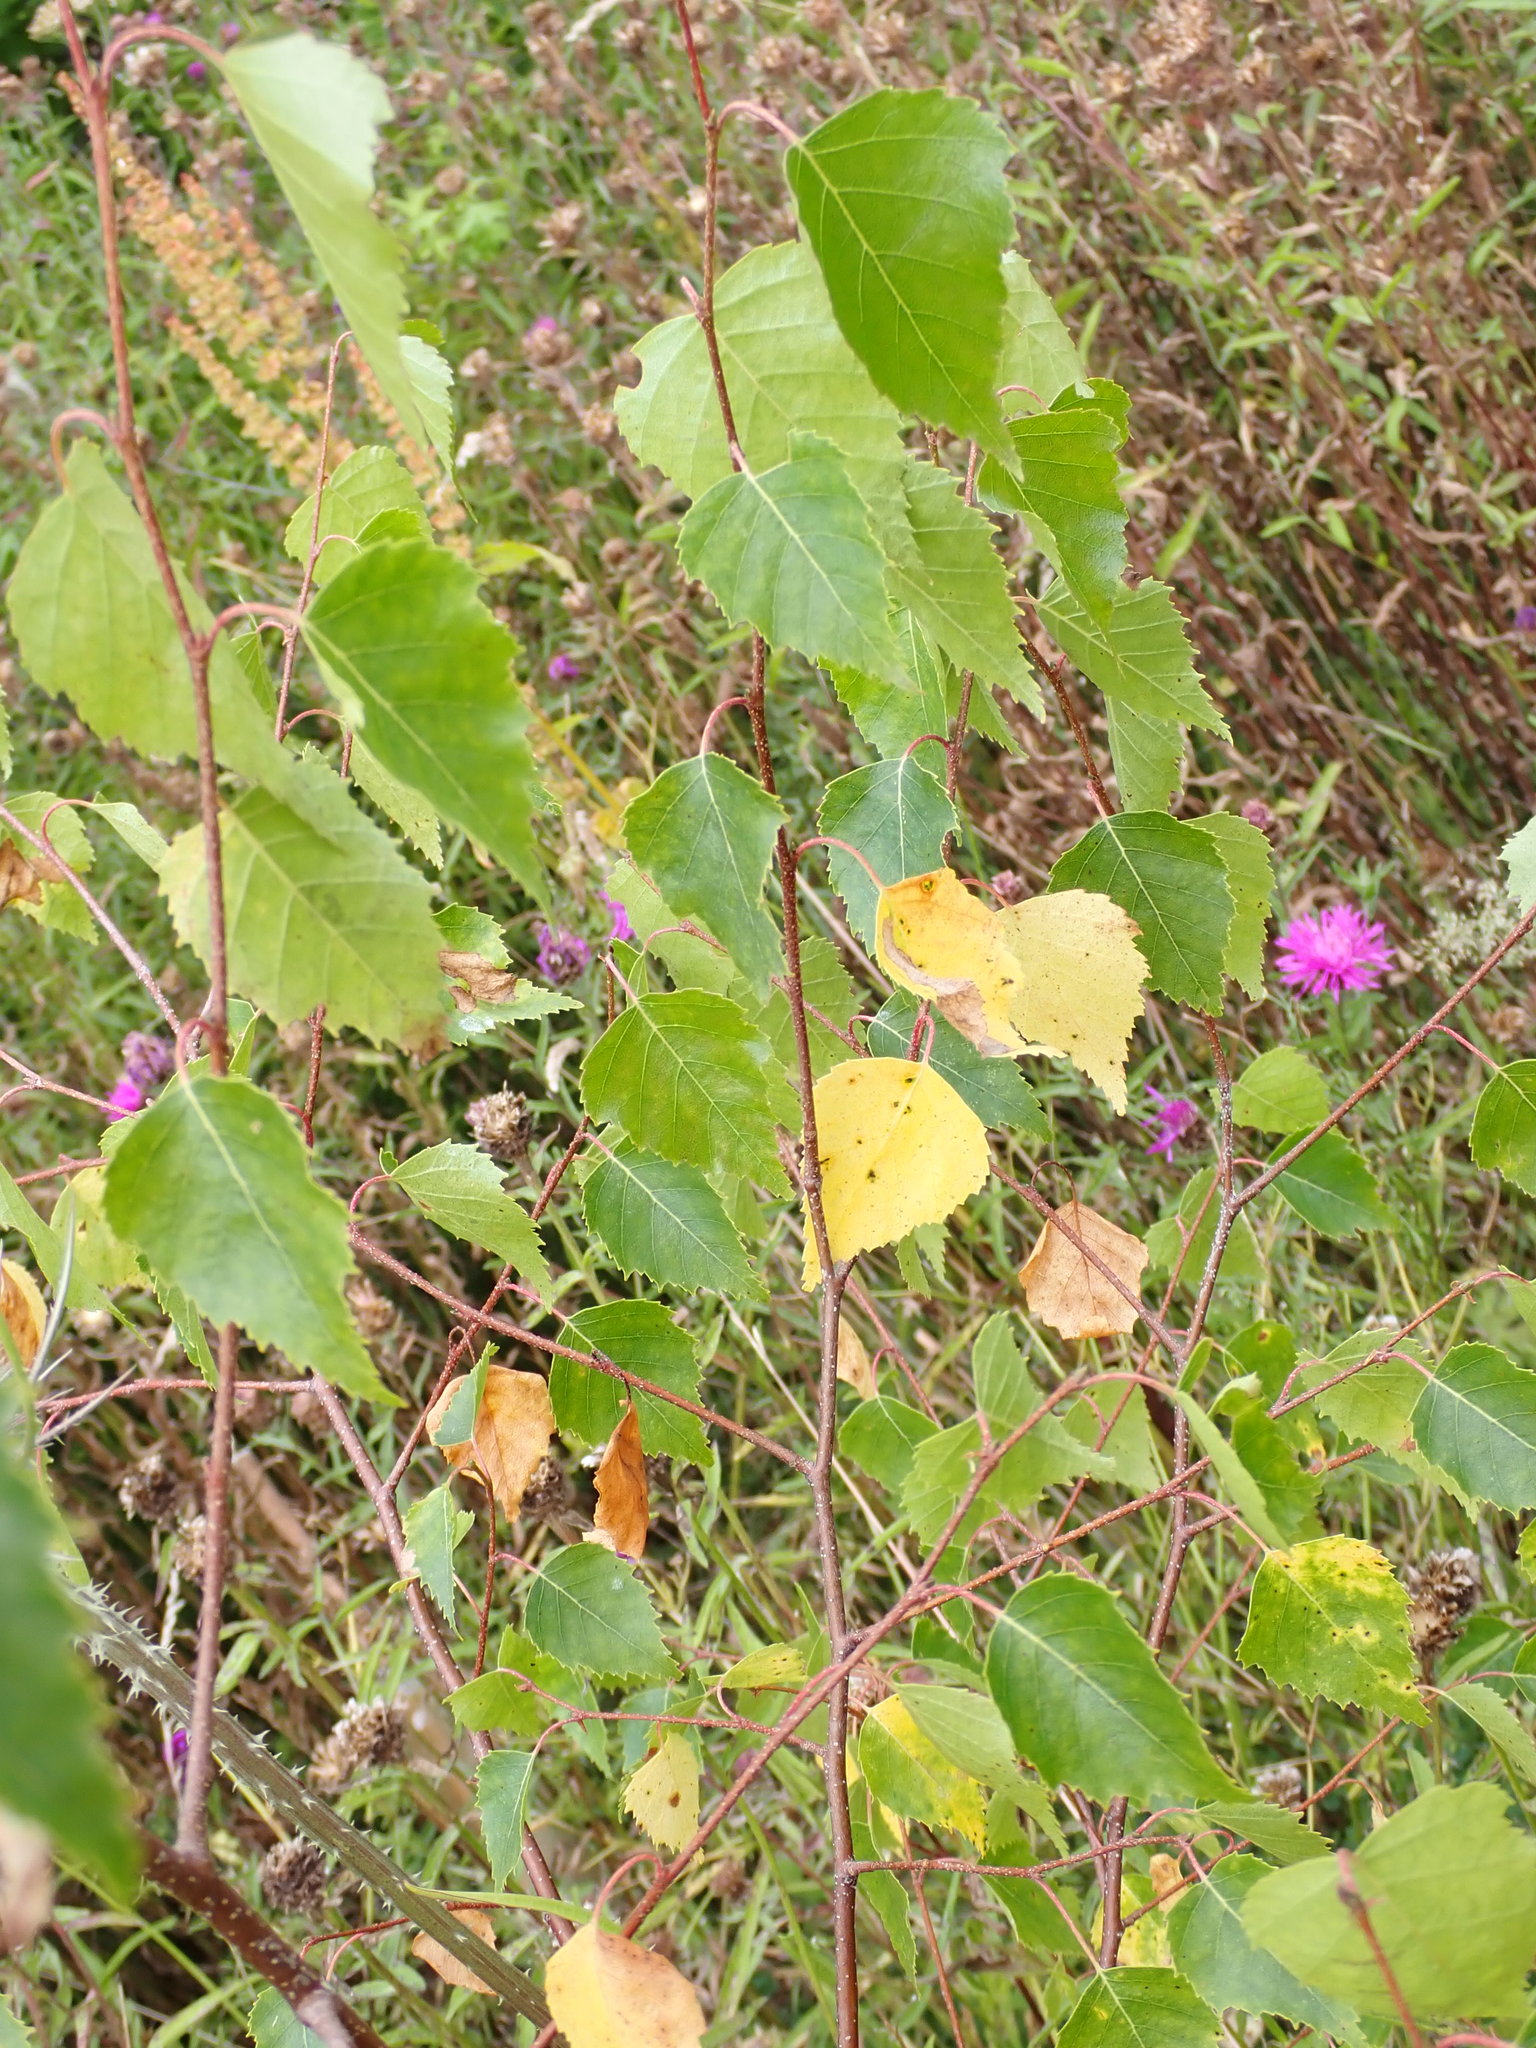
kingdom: Plantae
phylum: Tracheophyta
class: Magnoliopsida
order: Fagales
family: Betulaceae
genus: Betula
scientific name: Betula pendula
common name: Silver birch
